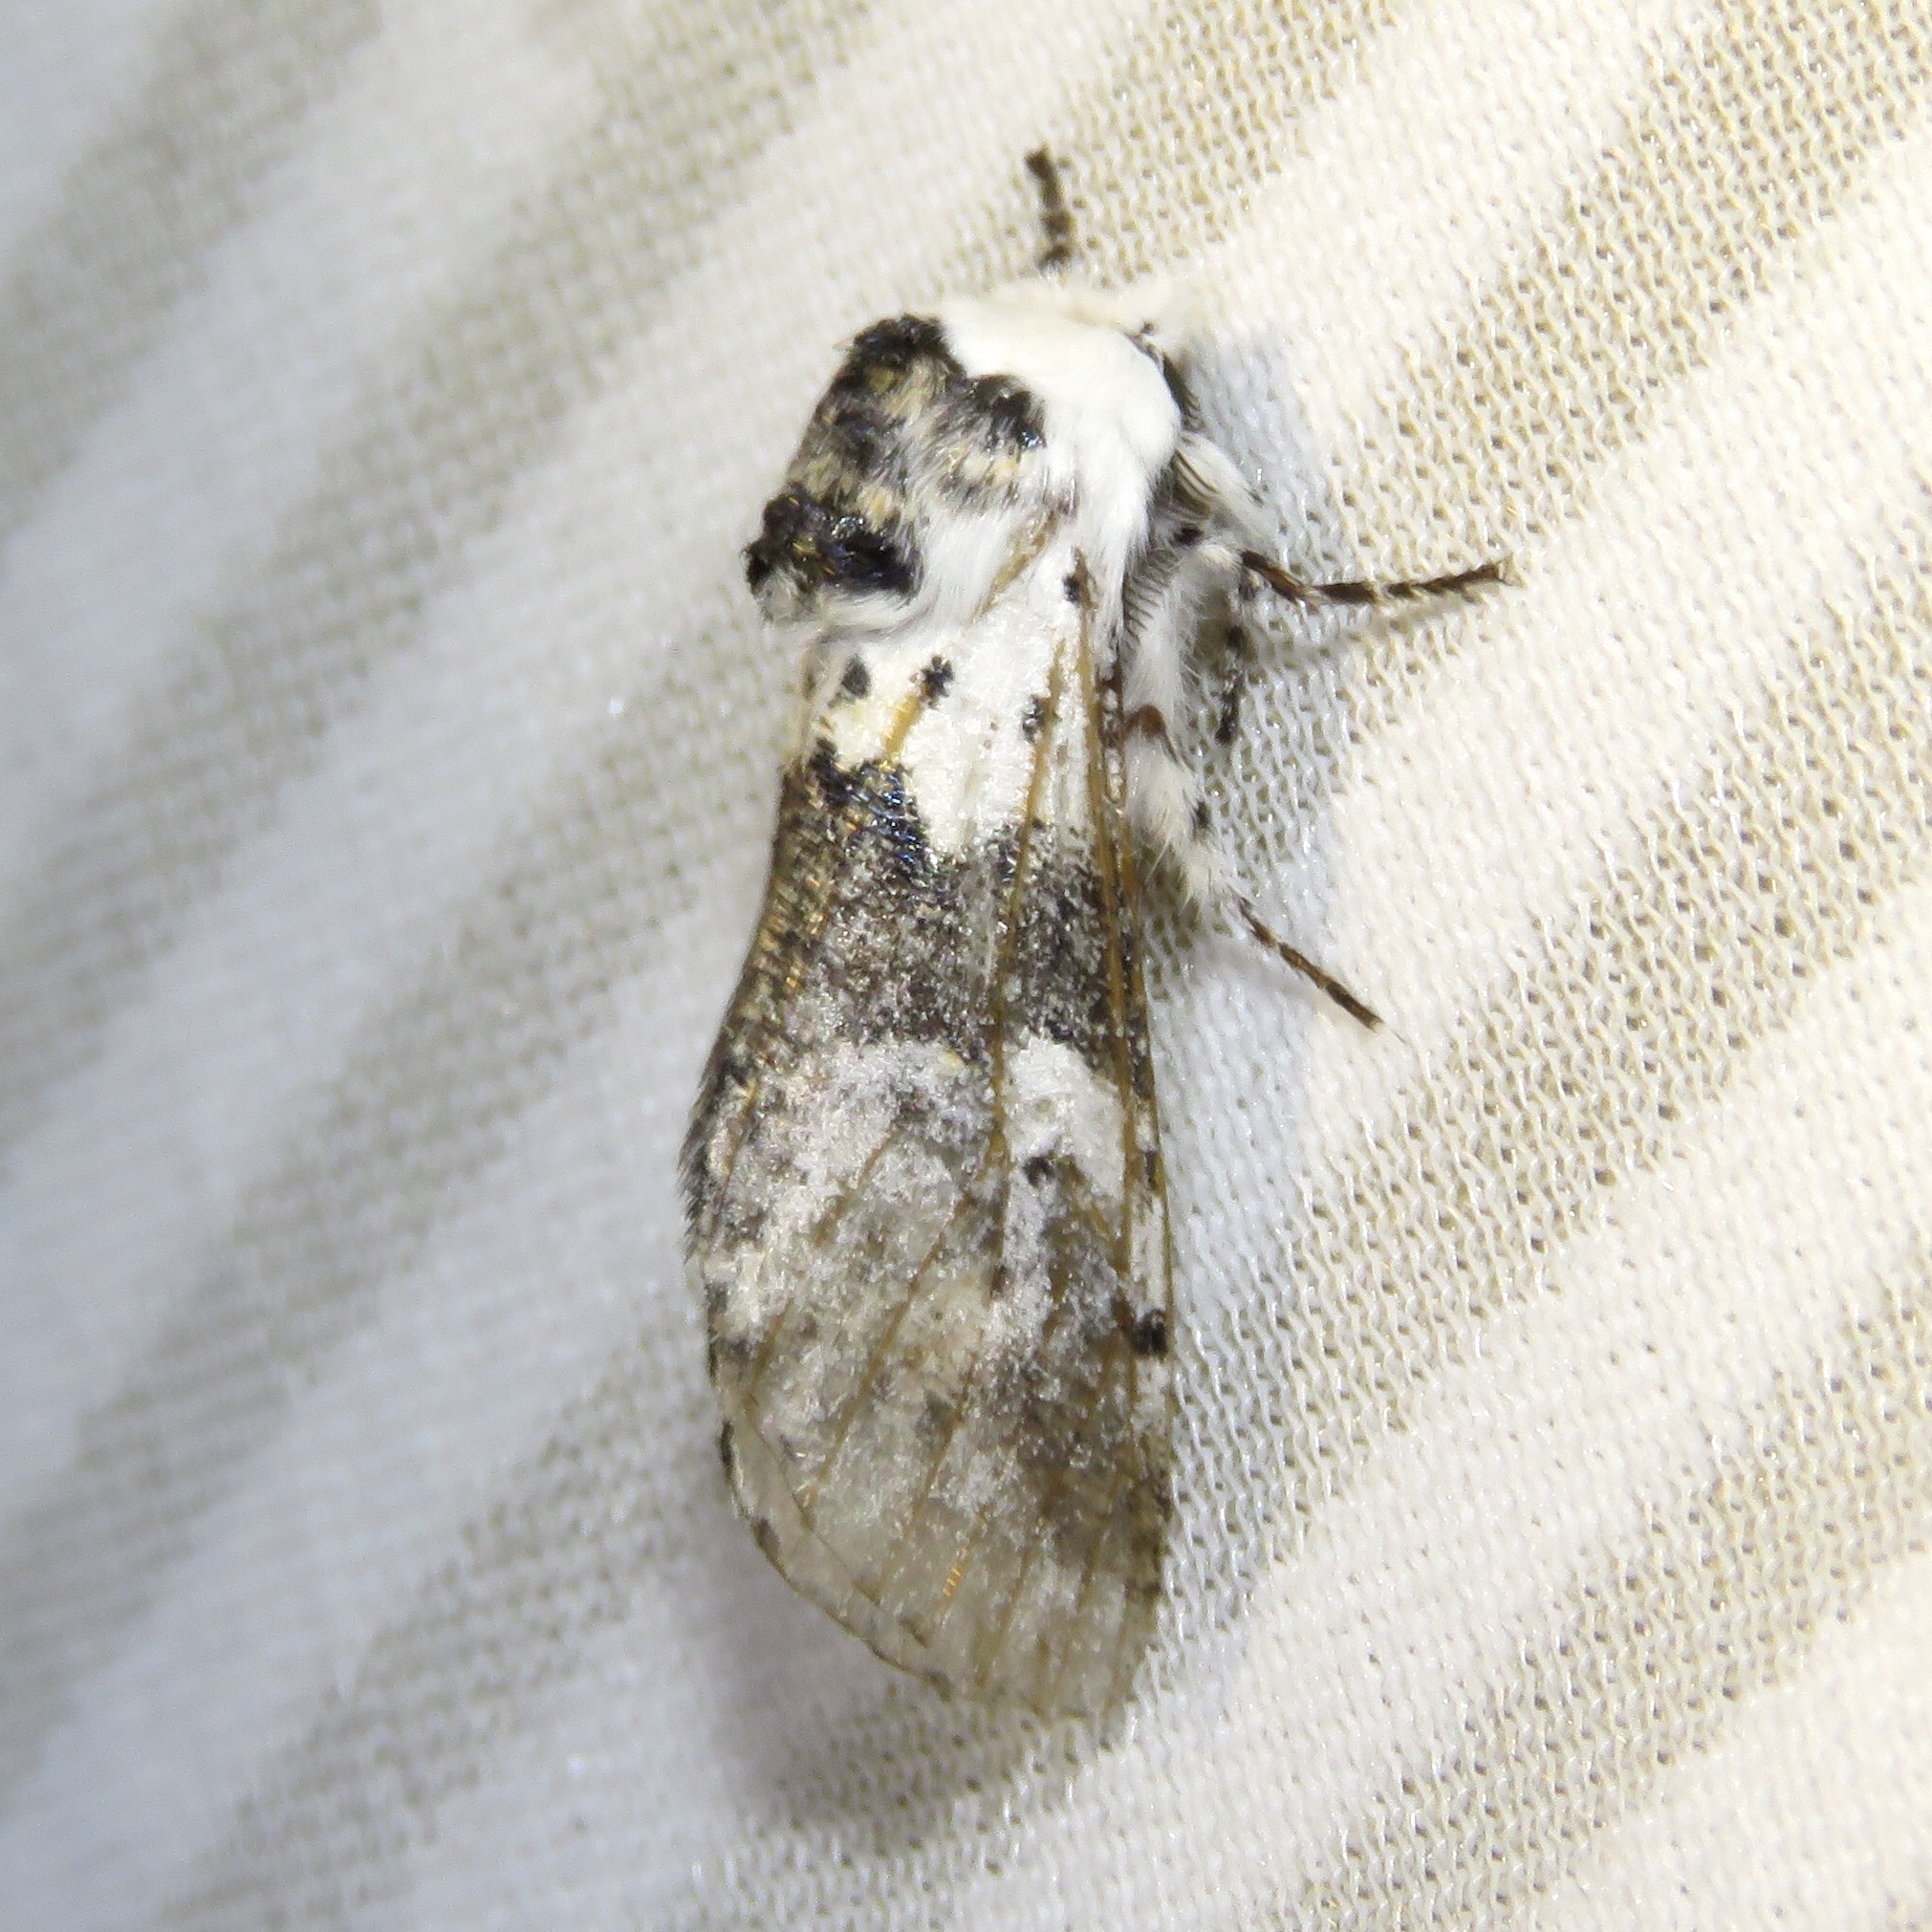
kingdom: Animalia
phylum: Arthropoda
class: Insecta
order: Lepidoptera
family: Notodontidae
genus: Furcula
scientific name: Furcula borealis
